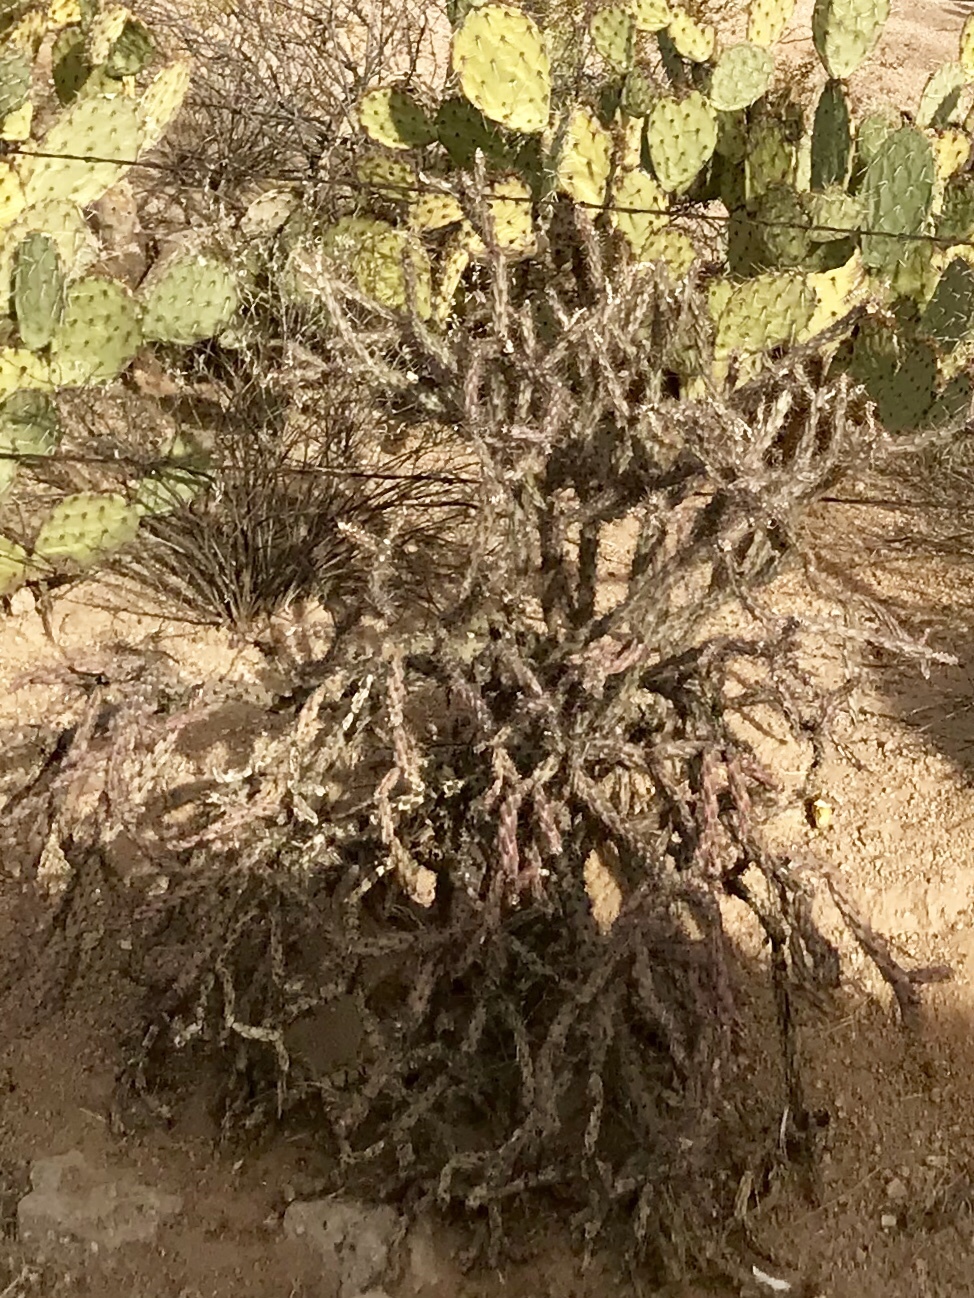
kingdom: Plantae
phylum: Tracheophyta
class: Magnoliopsida
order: Caryophyllales
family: Cactaceae
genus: Cylindropuntia
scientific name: Cylindropuntia thurberi
